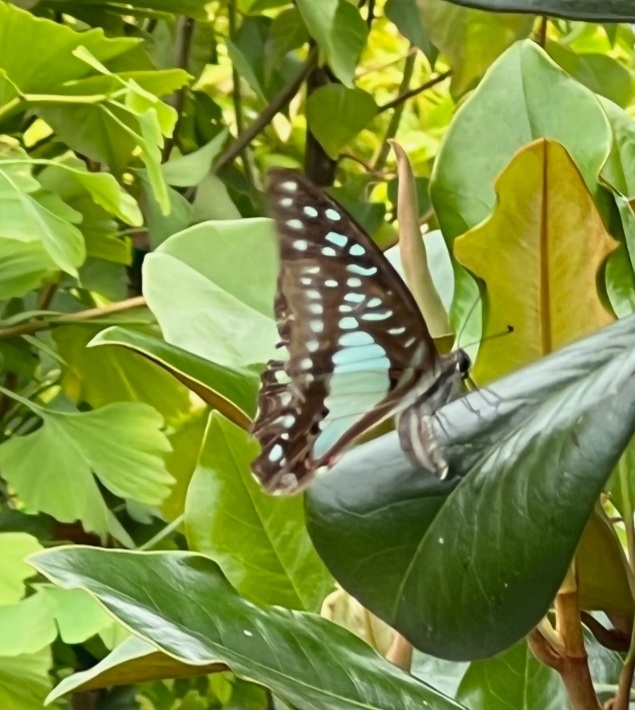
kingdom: Animalia
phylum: Arthropoda
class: Insecta
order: Lepidoptera
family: Papilionidae
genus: Graphium
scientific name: Graphium eurypylus
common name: Great jay
